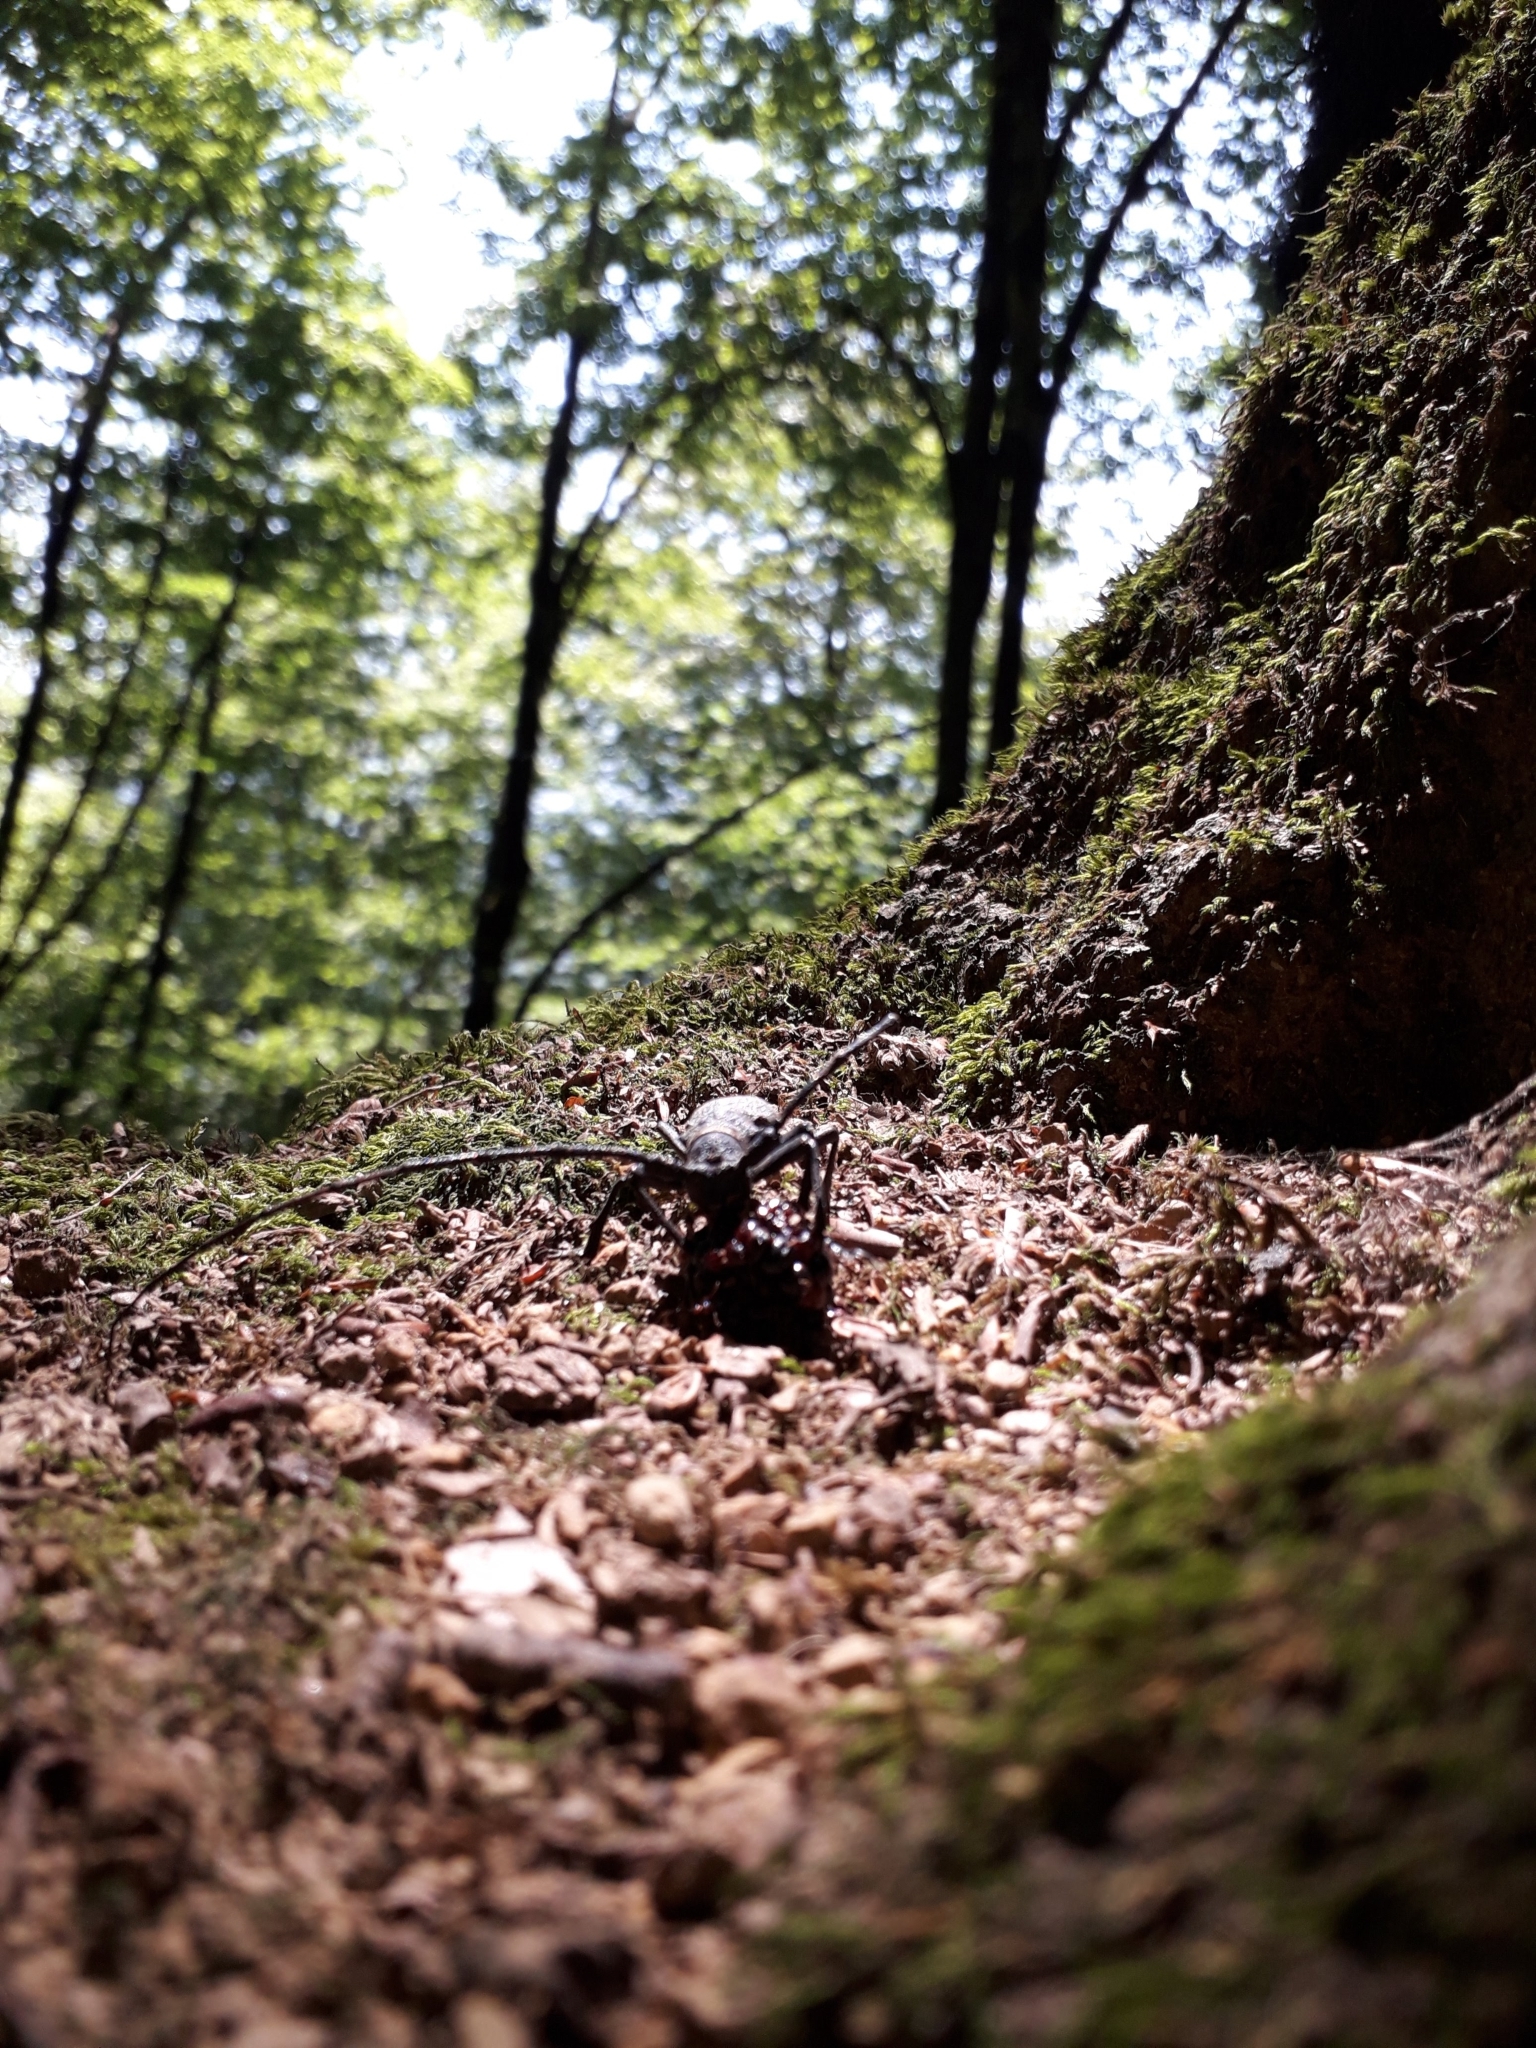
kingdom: Animalia
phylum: Arthropoda
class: Insecta
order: Coleoptera
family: Cerambycidae
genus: Morimus
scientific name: Morimus asper
